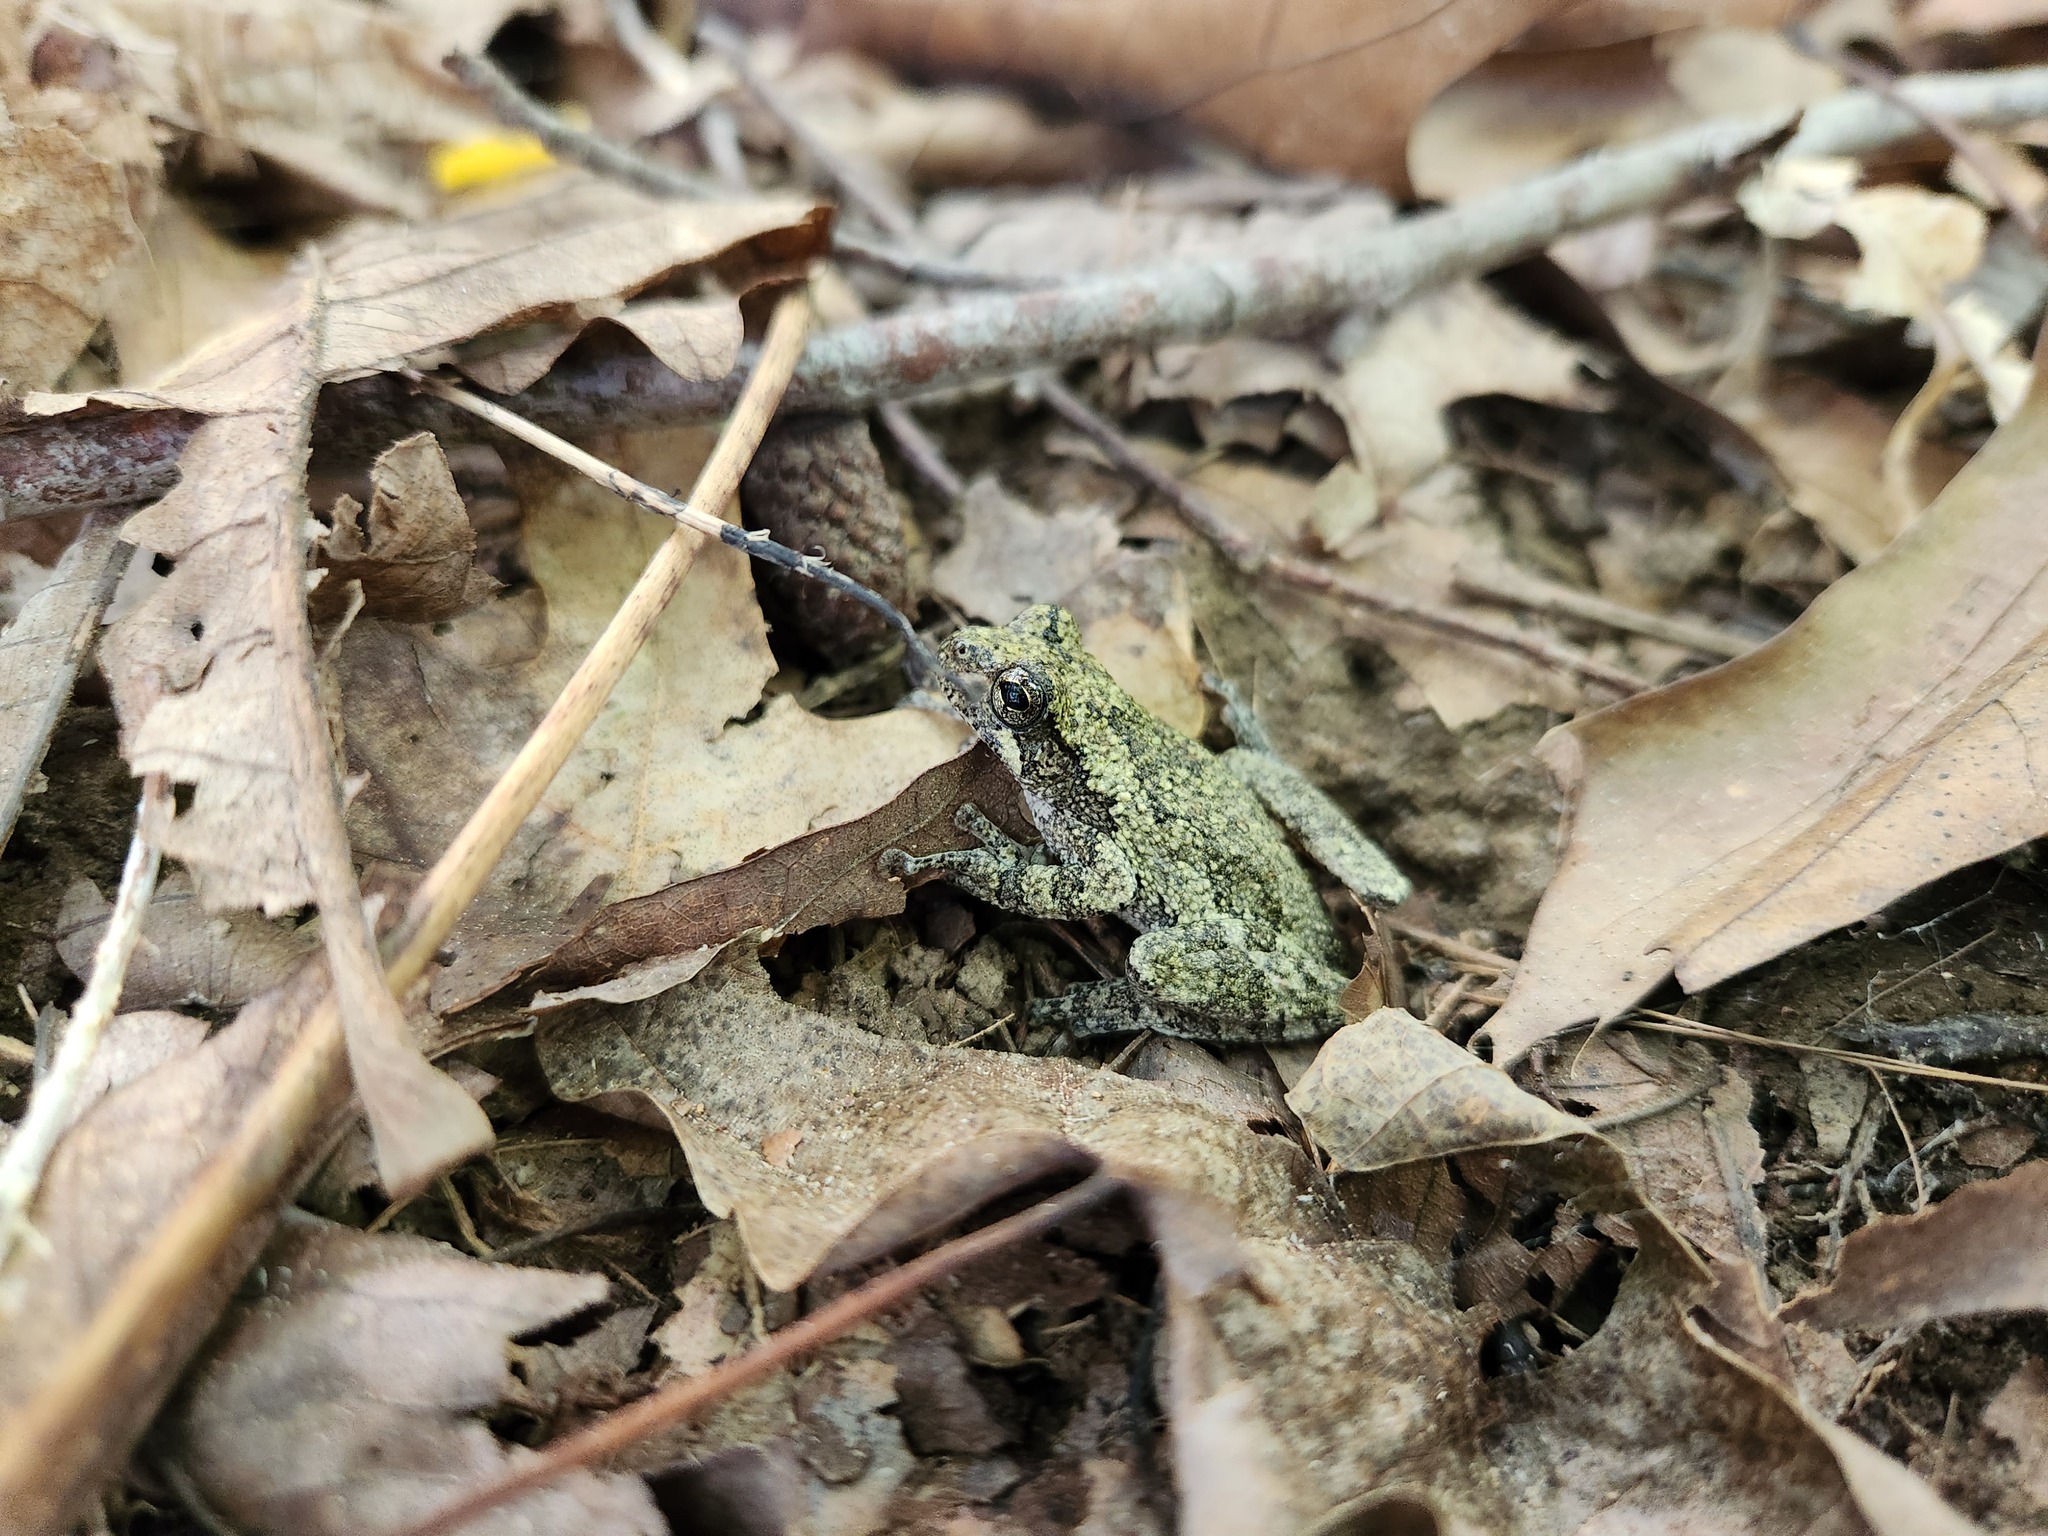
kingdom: Animalia
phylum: Chordata
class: Amphibia
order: Anura
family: Hylidae
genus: Dryophytes
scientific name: Dryophytes chrysoscelis
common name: Cope's gray treefrog
